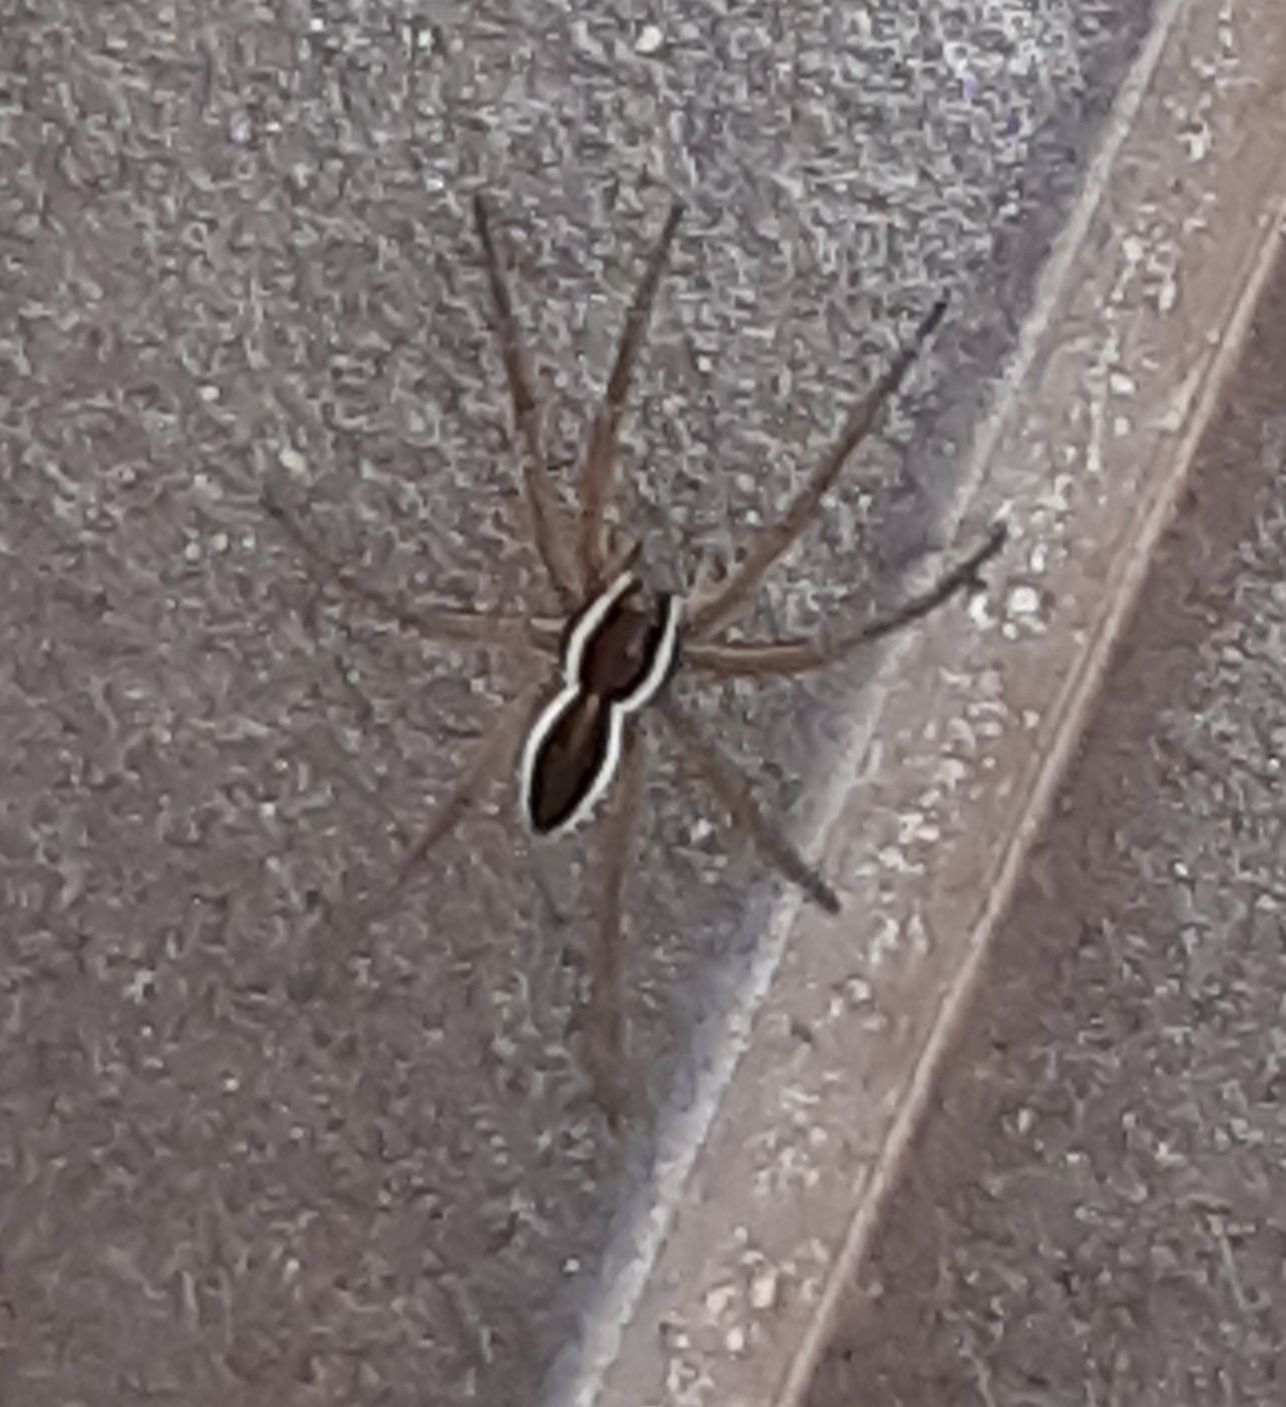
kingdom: Animalia
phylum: Arthropoda
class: Arachnida
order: Araneae
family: Pisauridae
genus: Dolomedes
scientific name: Dolomedes fimbriatus
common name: Raft spider
